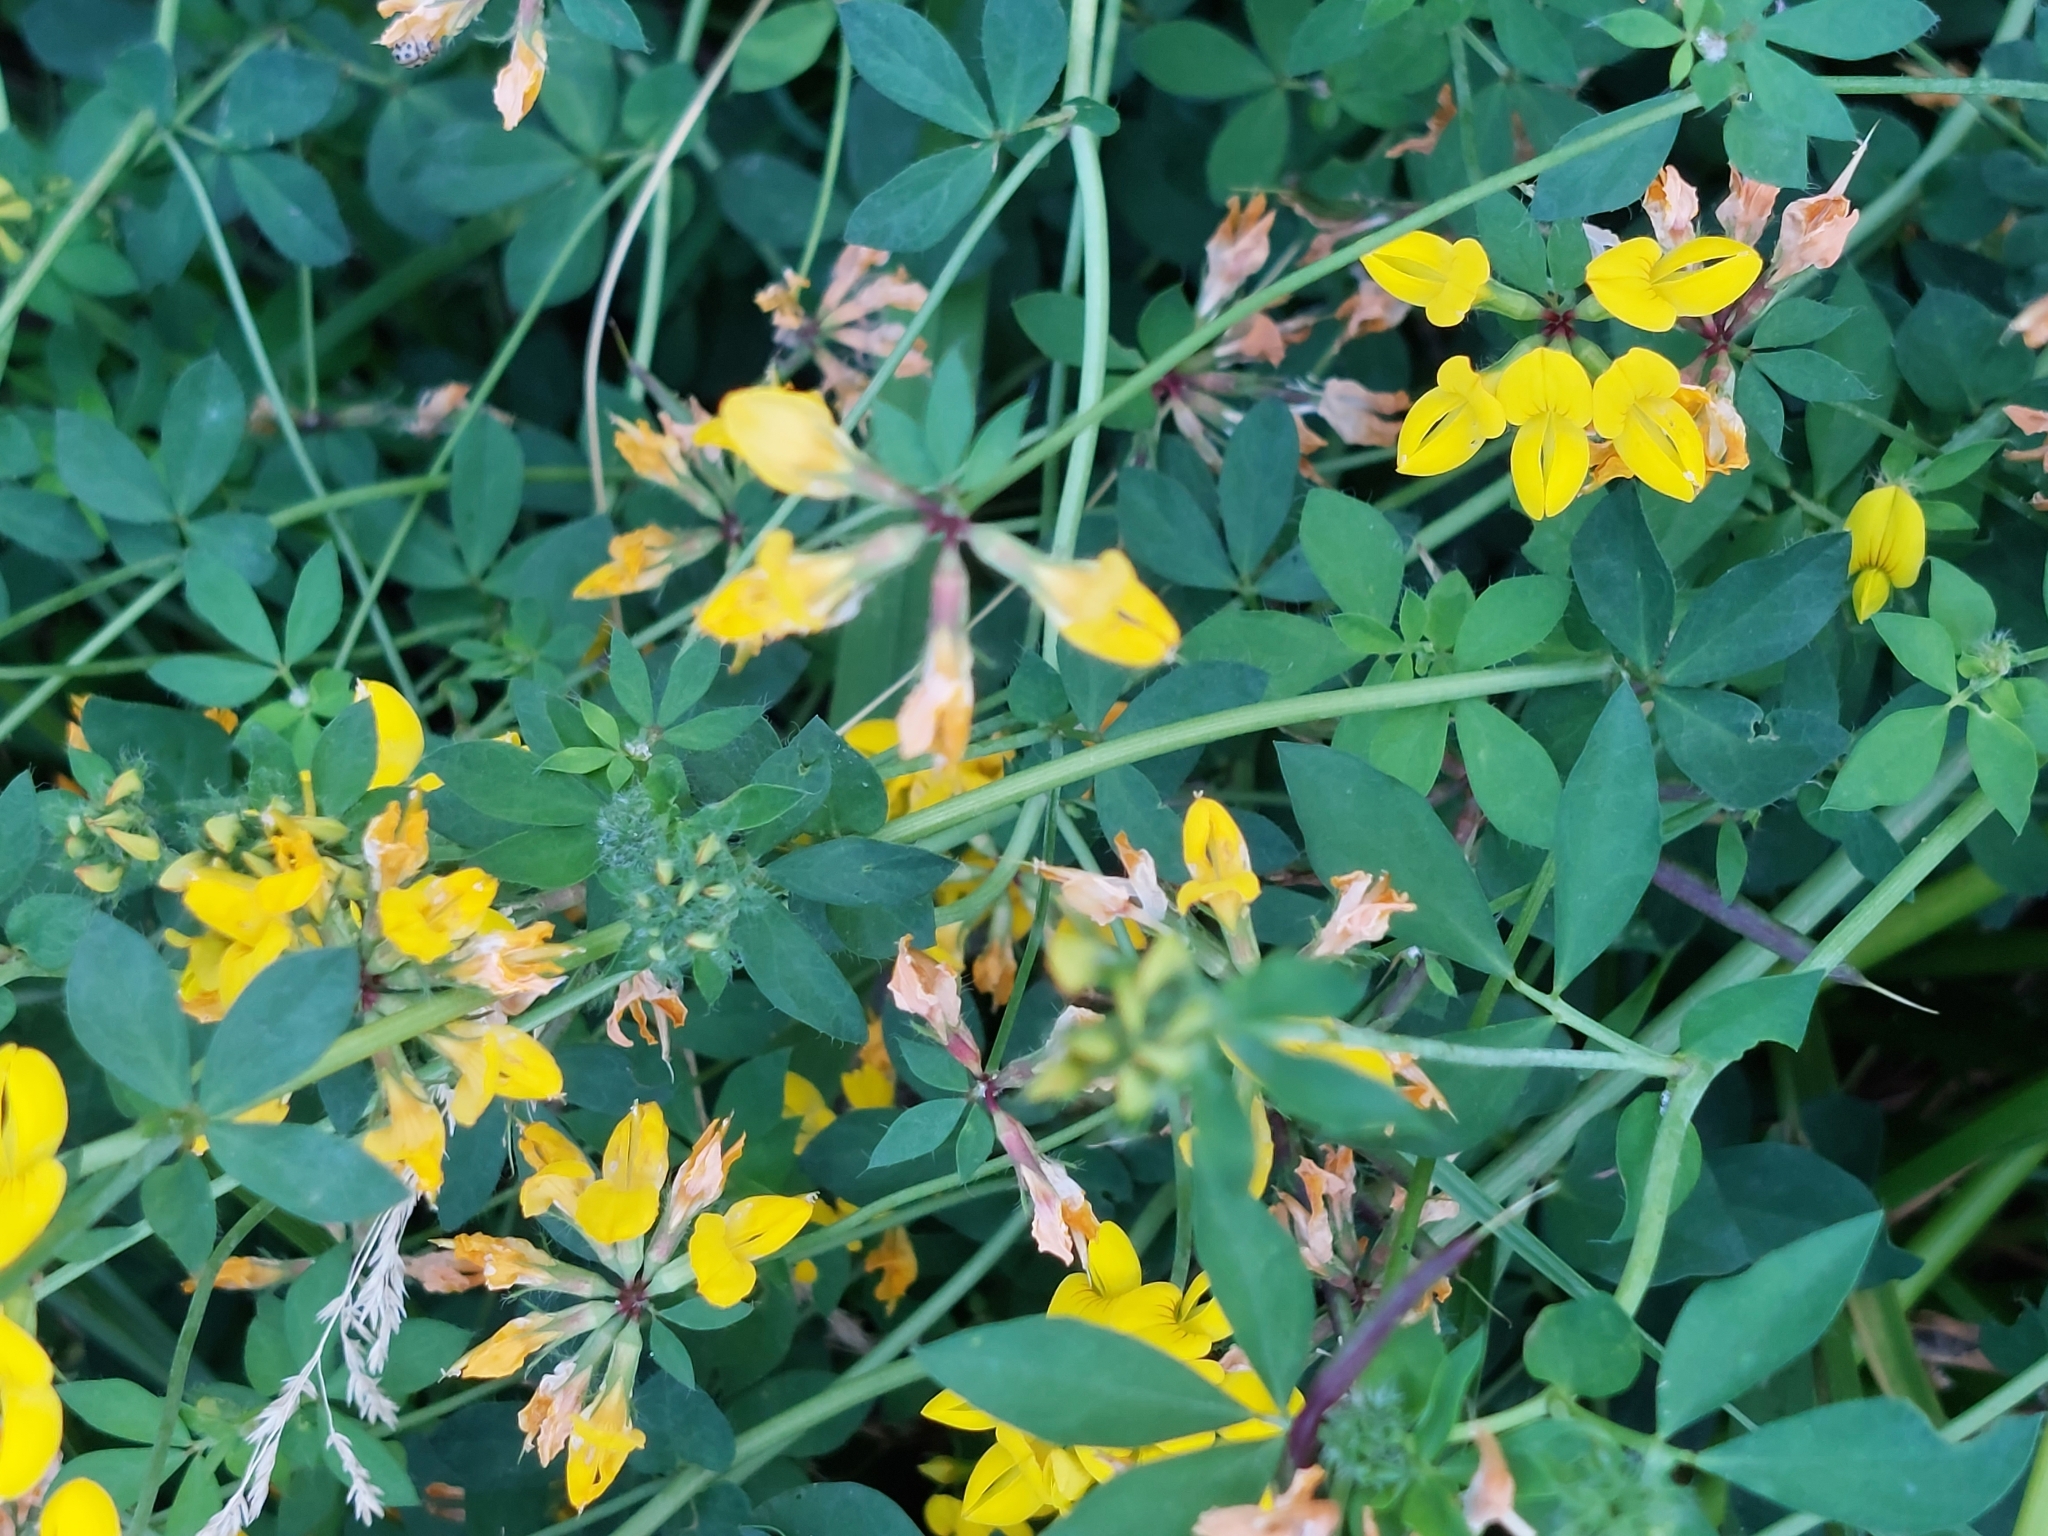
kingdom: Plantae
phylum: Tracheophyta
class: Magnoliopsida
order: Fabales
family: Fabaceae
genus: Lotus
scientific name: Lotus pedunculatus
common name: Greater birdsfoot-trefoil
